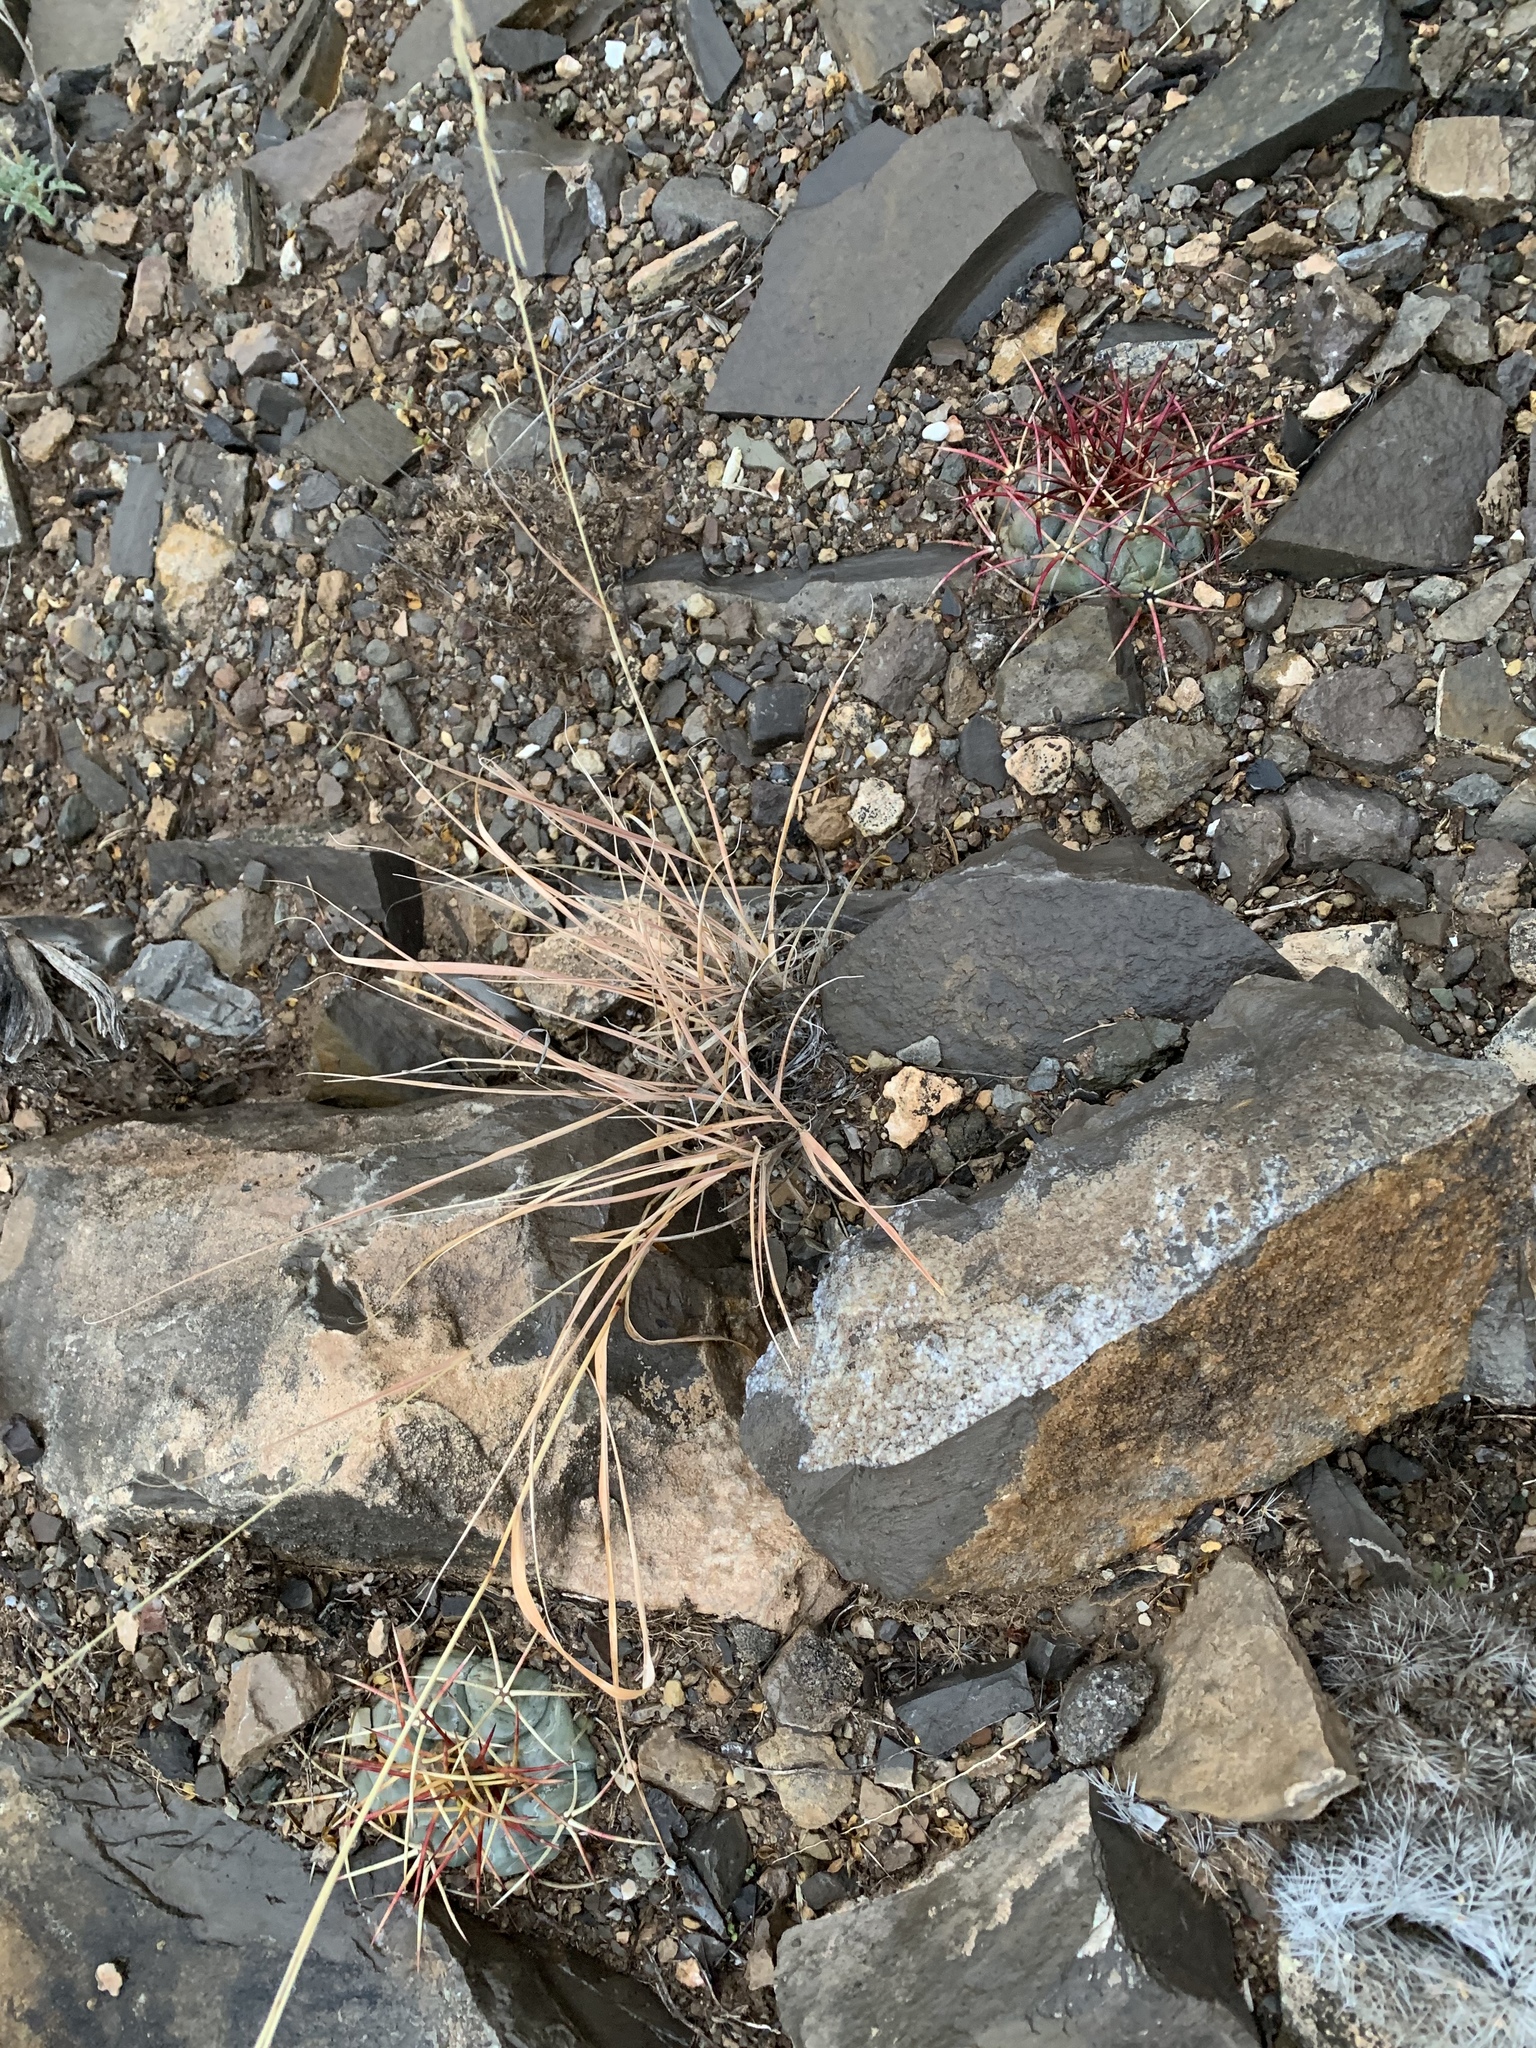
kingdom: Plantae
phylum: Tracheophyta
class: Magnoliopsida
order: Caryophyllales
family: Cactaceae
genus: Echinocactus
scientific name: Echinocactus horizonthalonius
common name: Devilshead
